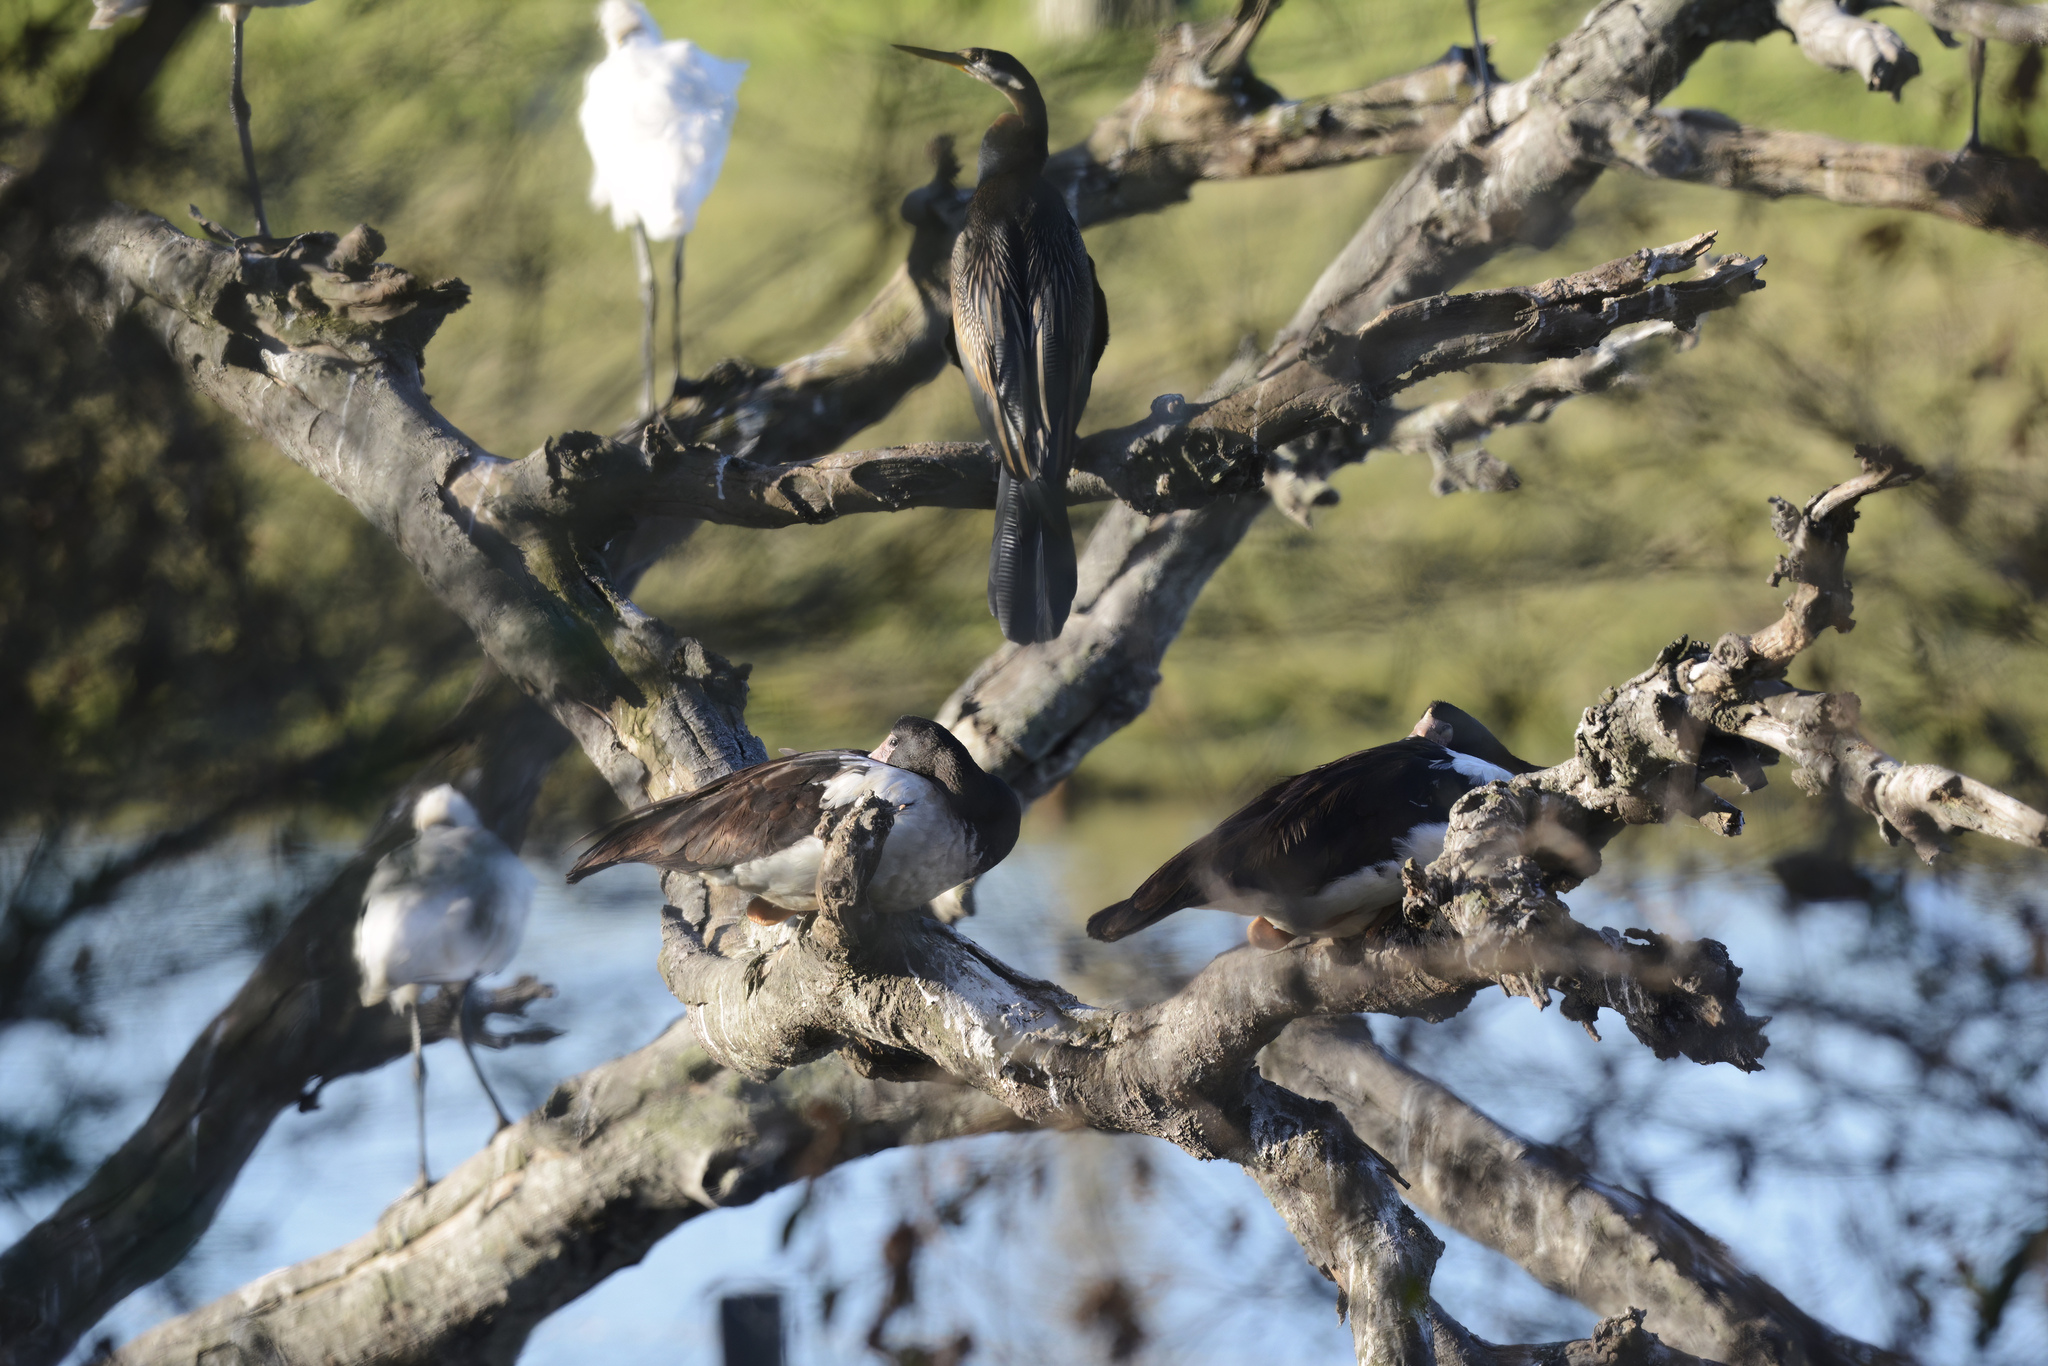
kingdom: Animalia
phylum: Chordata
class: Aves
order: Suliformes
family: Anhingidae
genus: Anhinga
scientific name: Anhinga novaehollandiae
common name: Australasian darter
